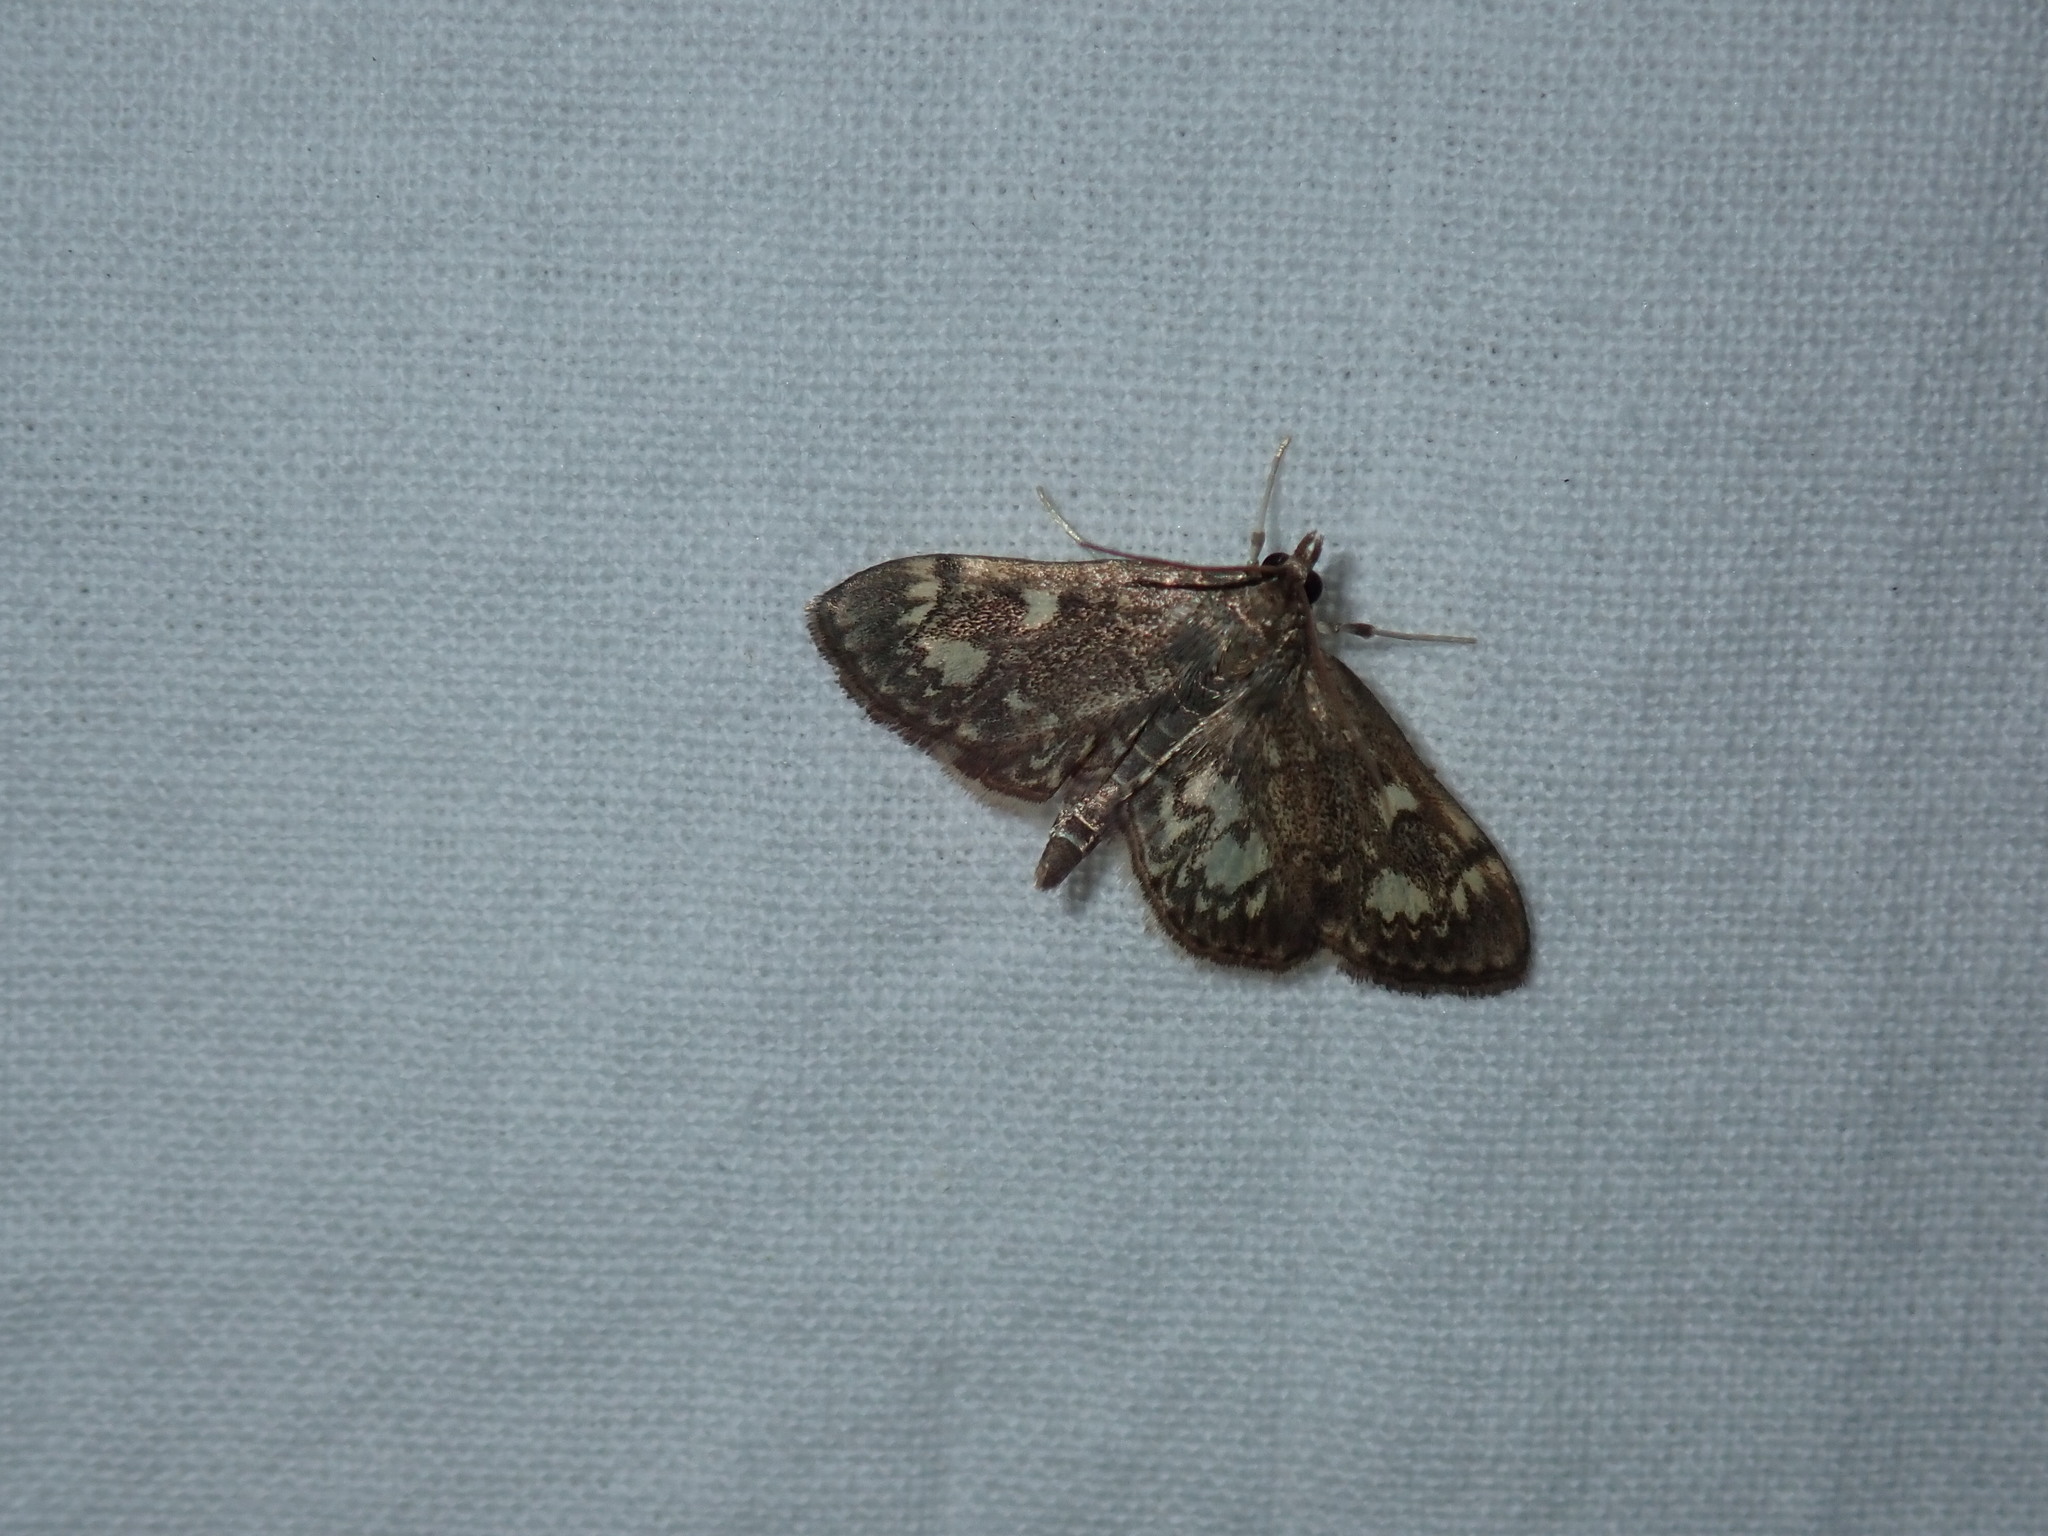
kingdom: Animalia
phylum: Arthropoda
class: Insecta
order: Lepidoptera
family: Crambidae
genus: Anania
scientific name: Anania tertialis
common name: Crowned phylctaenia moth
